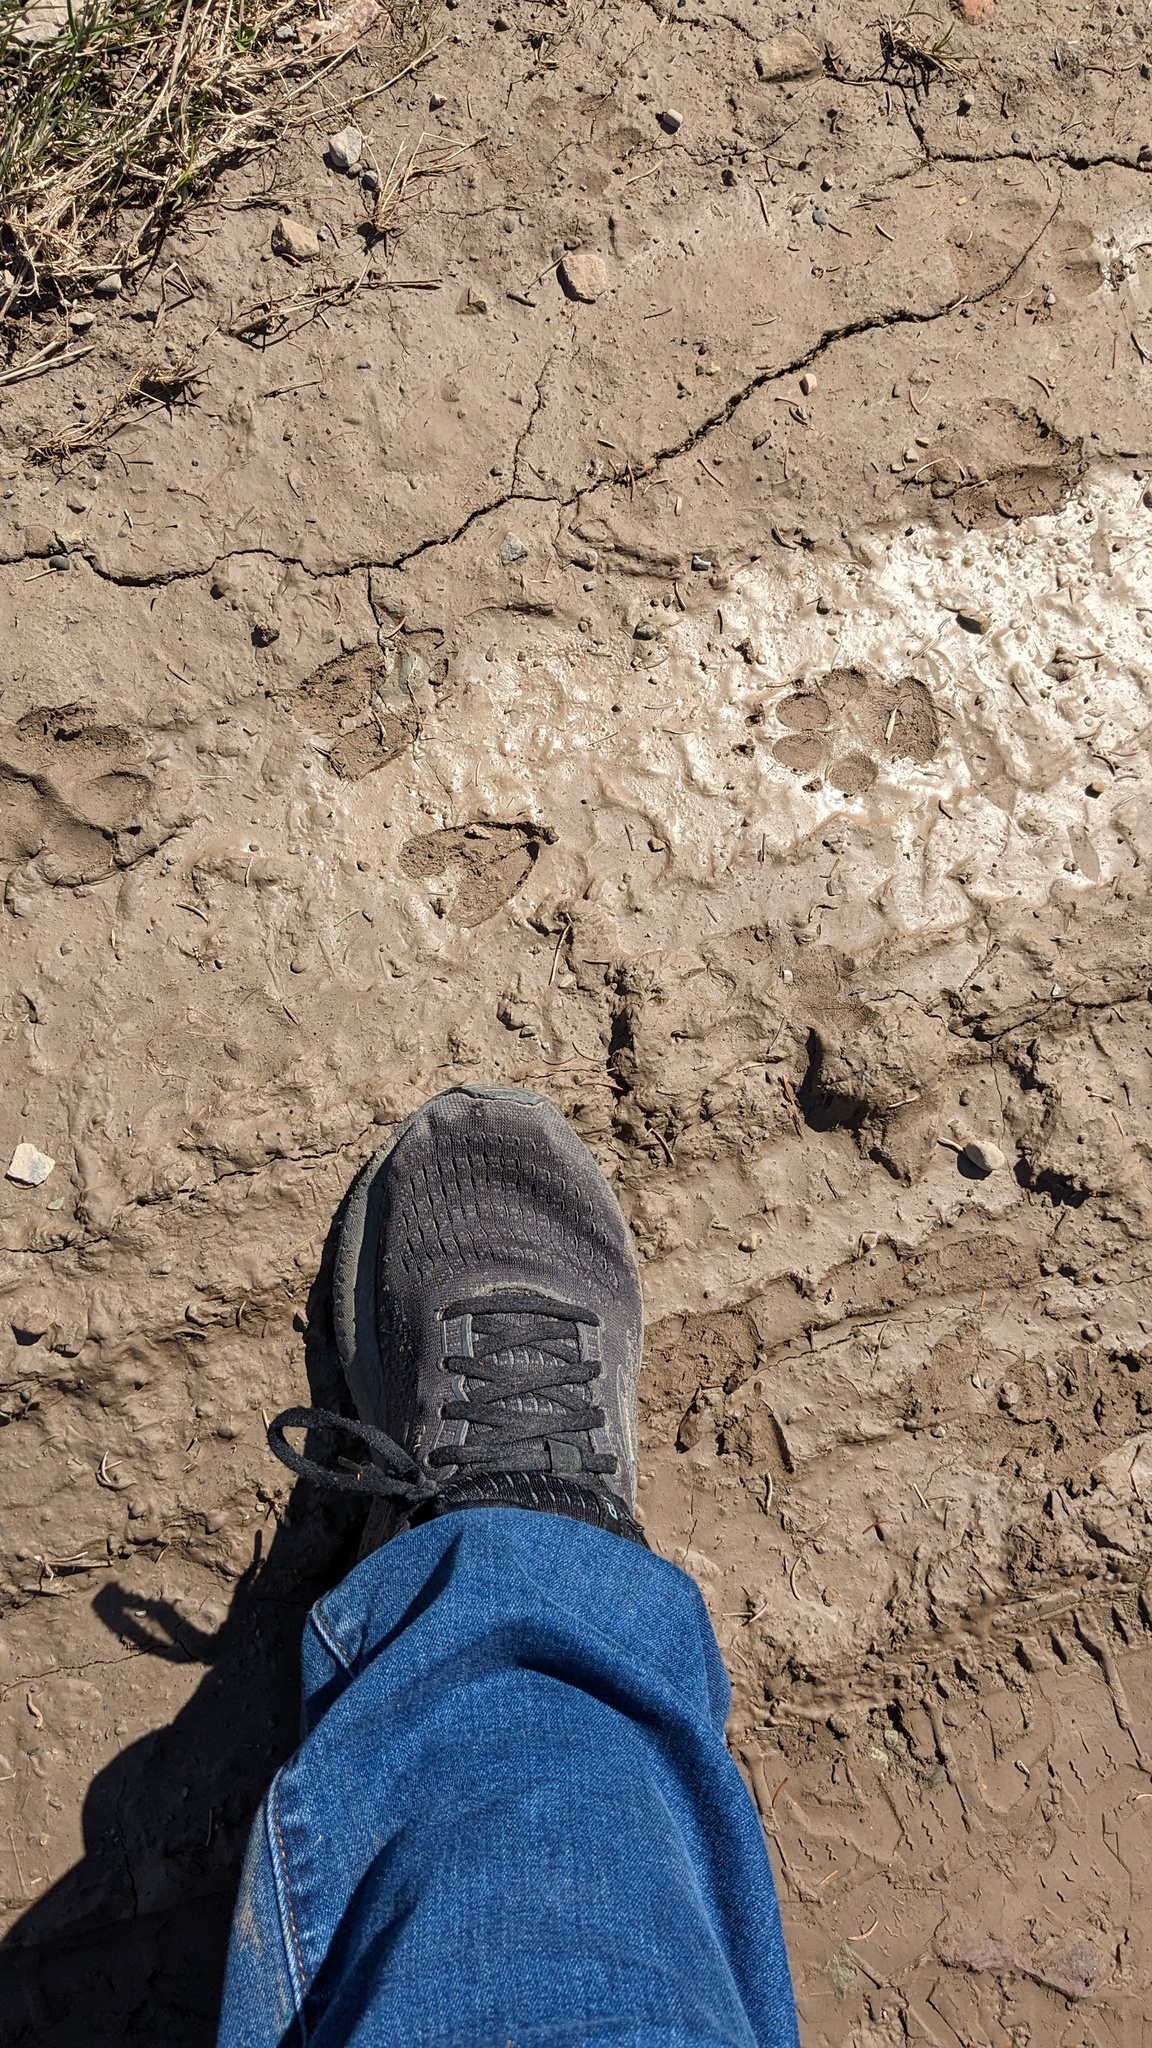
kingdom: Animalia
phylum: Chordata
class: Mammalia
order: Artiodactyla
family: Cervidae
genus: Odocoileus
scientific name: Odocoileus virginianus
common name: White-tailed deer
